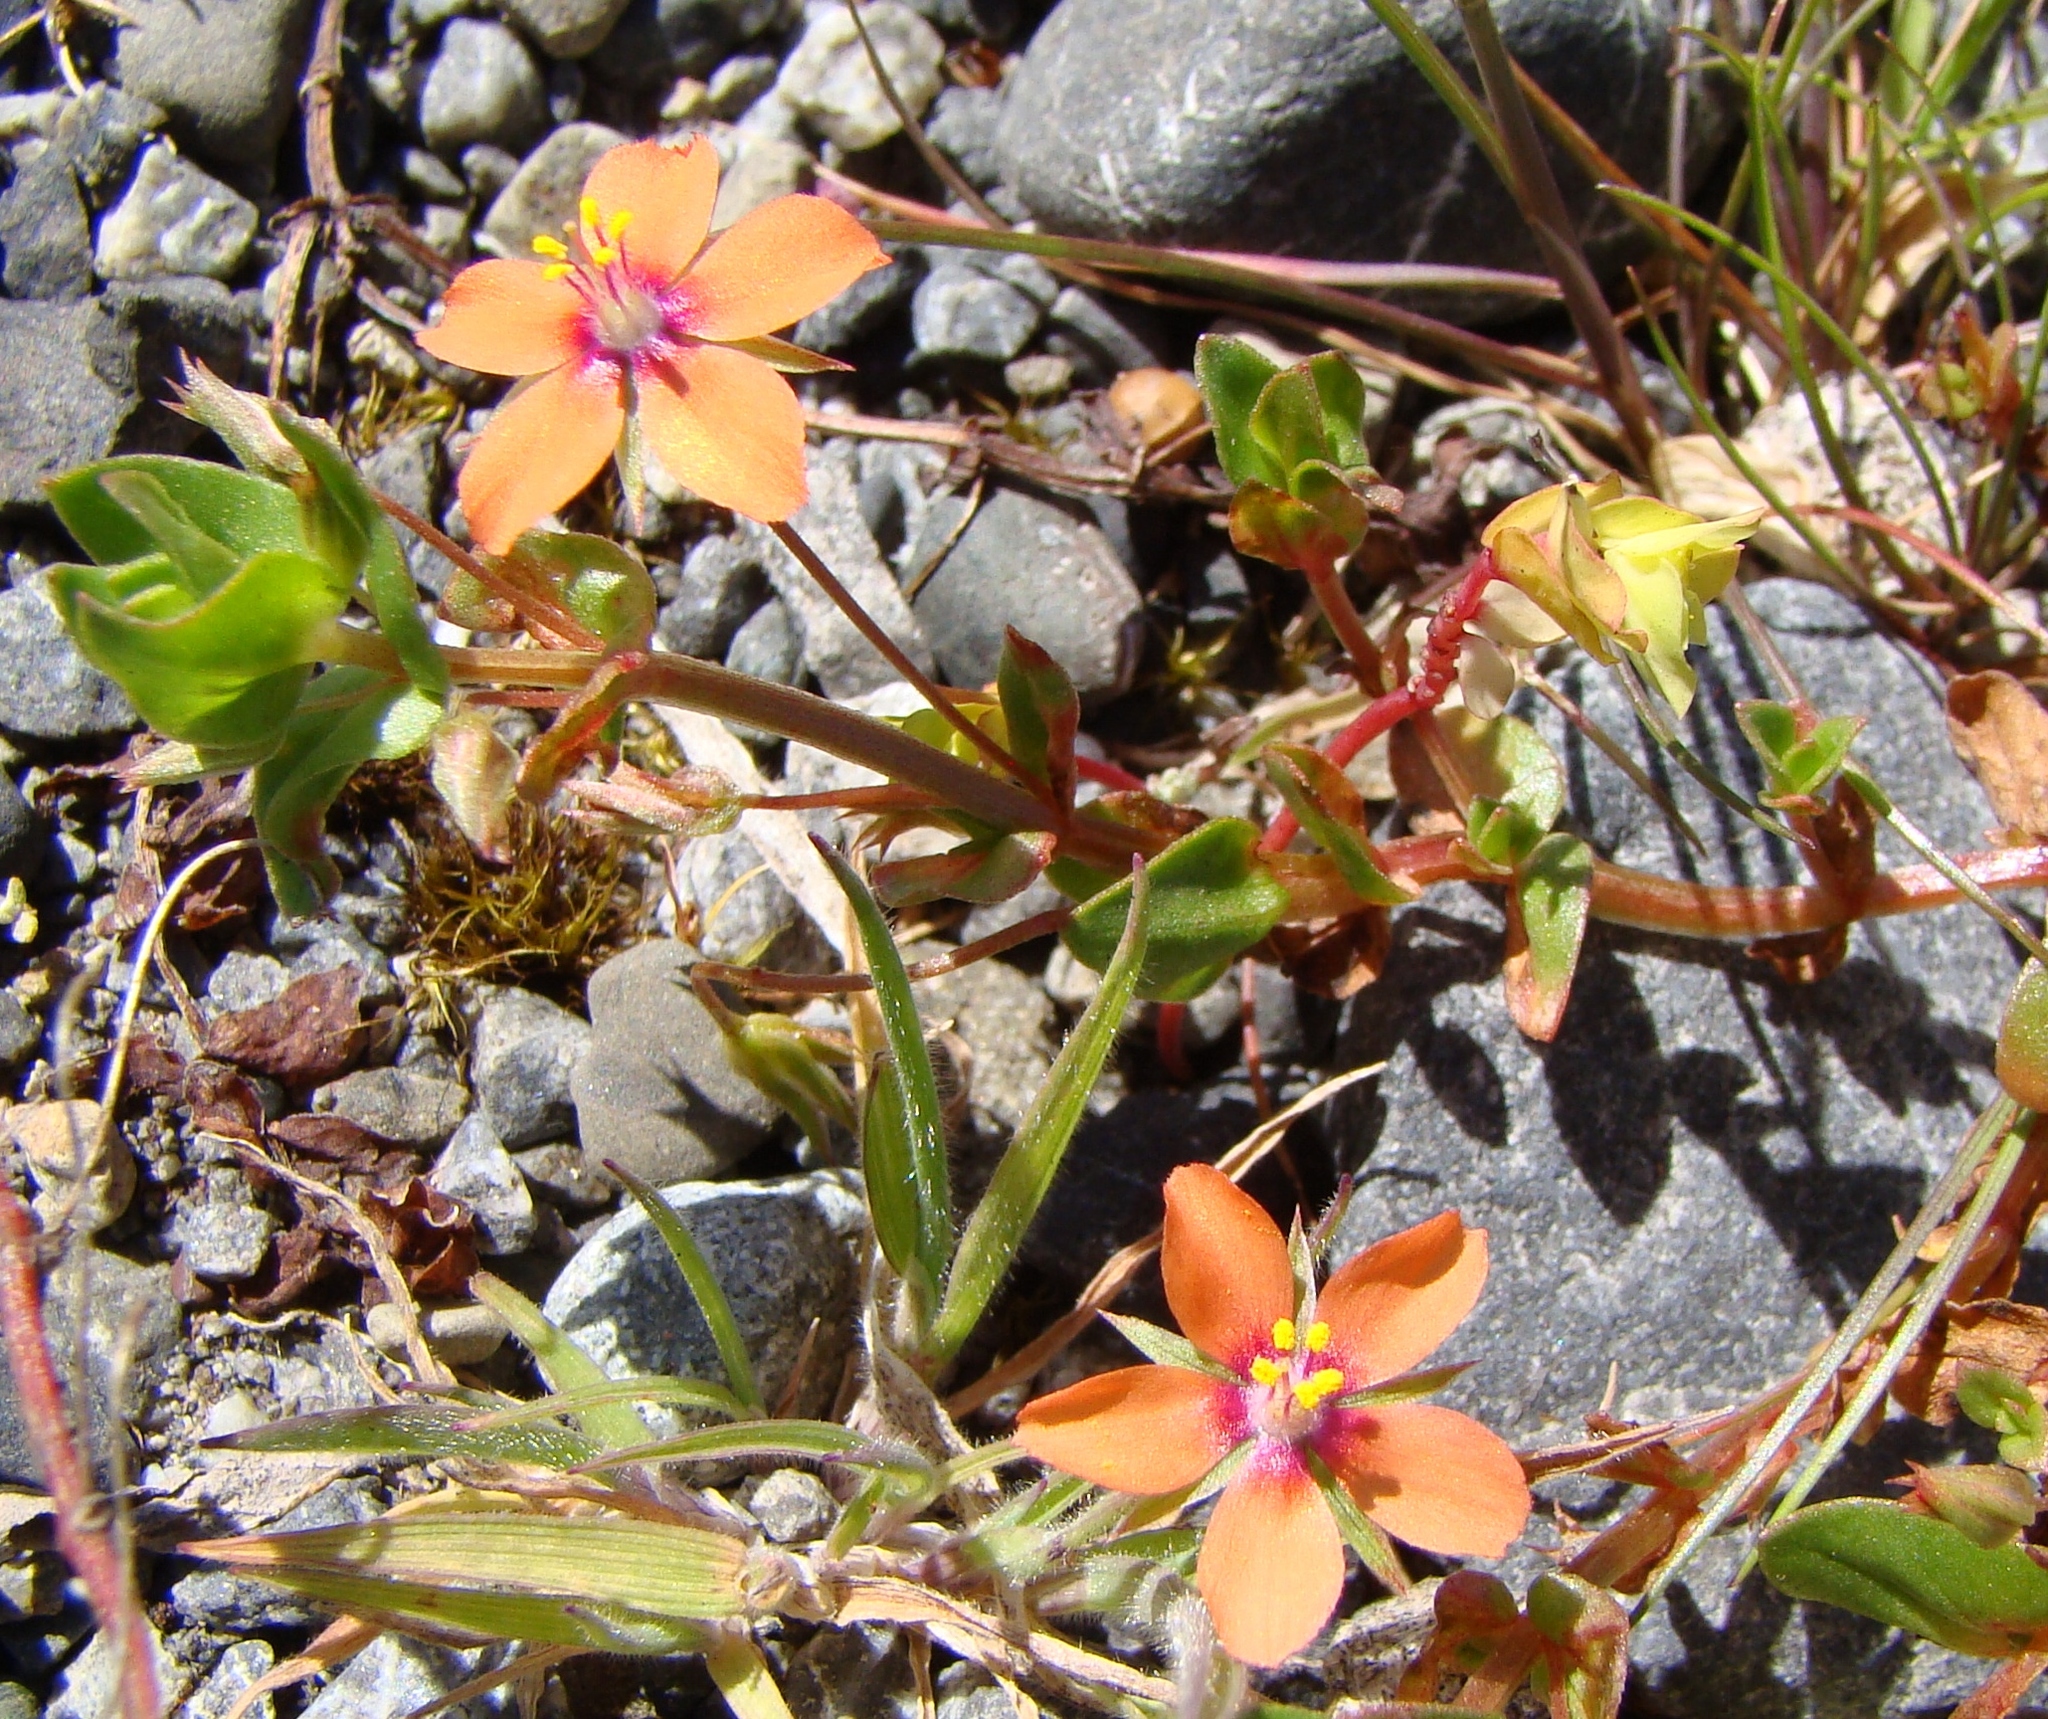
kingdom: Plantae
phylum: Tracheophyta
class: Magnoliopsida
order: Ericales
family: Primulaceae
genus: Lysimachia
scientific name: Lysimachia arvensis
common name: Scarlet pimpernel
